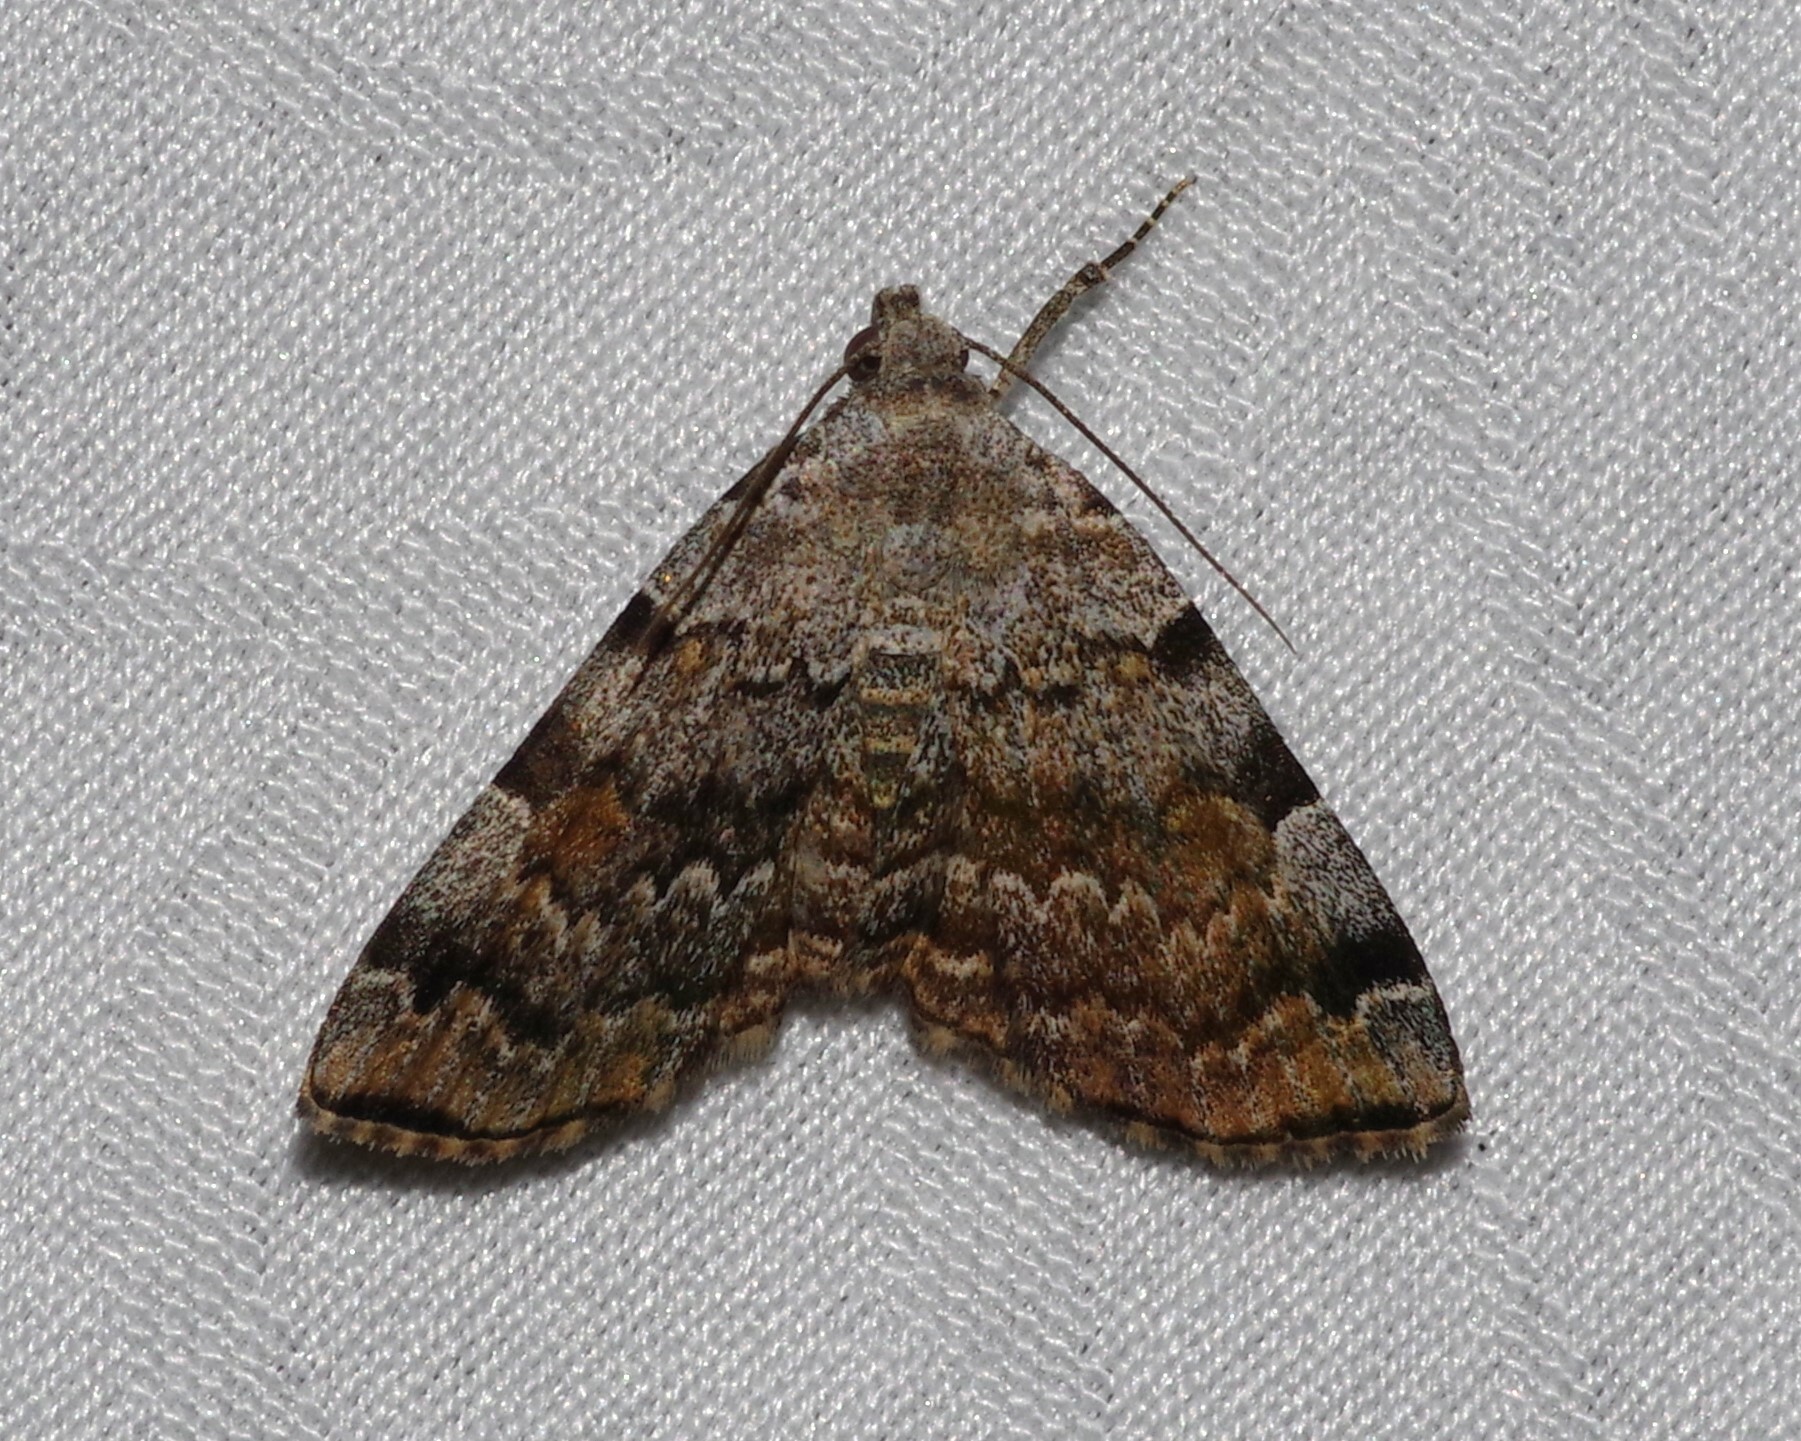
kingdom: Animalia
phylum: Arthropoda
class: Insecta
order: Lepidoptera
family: Erebidae
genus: Idia
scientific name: Idia americalis
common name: American idia moth
